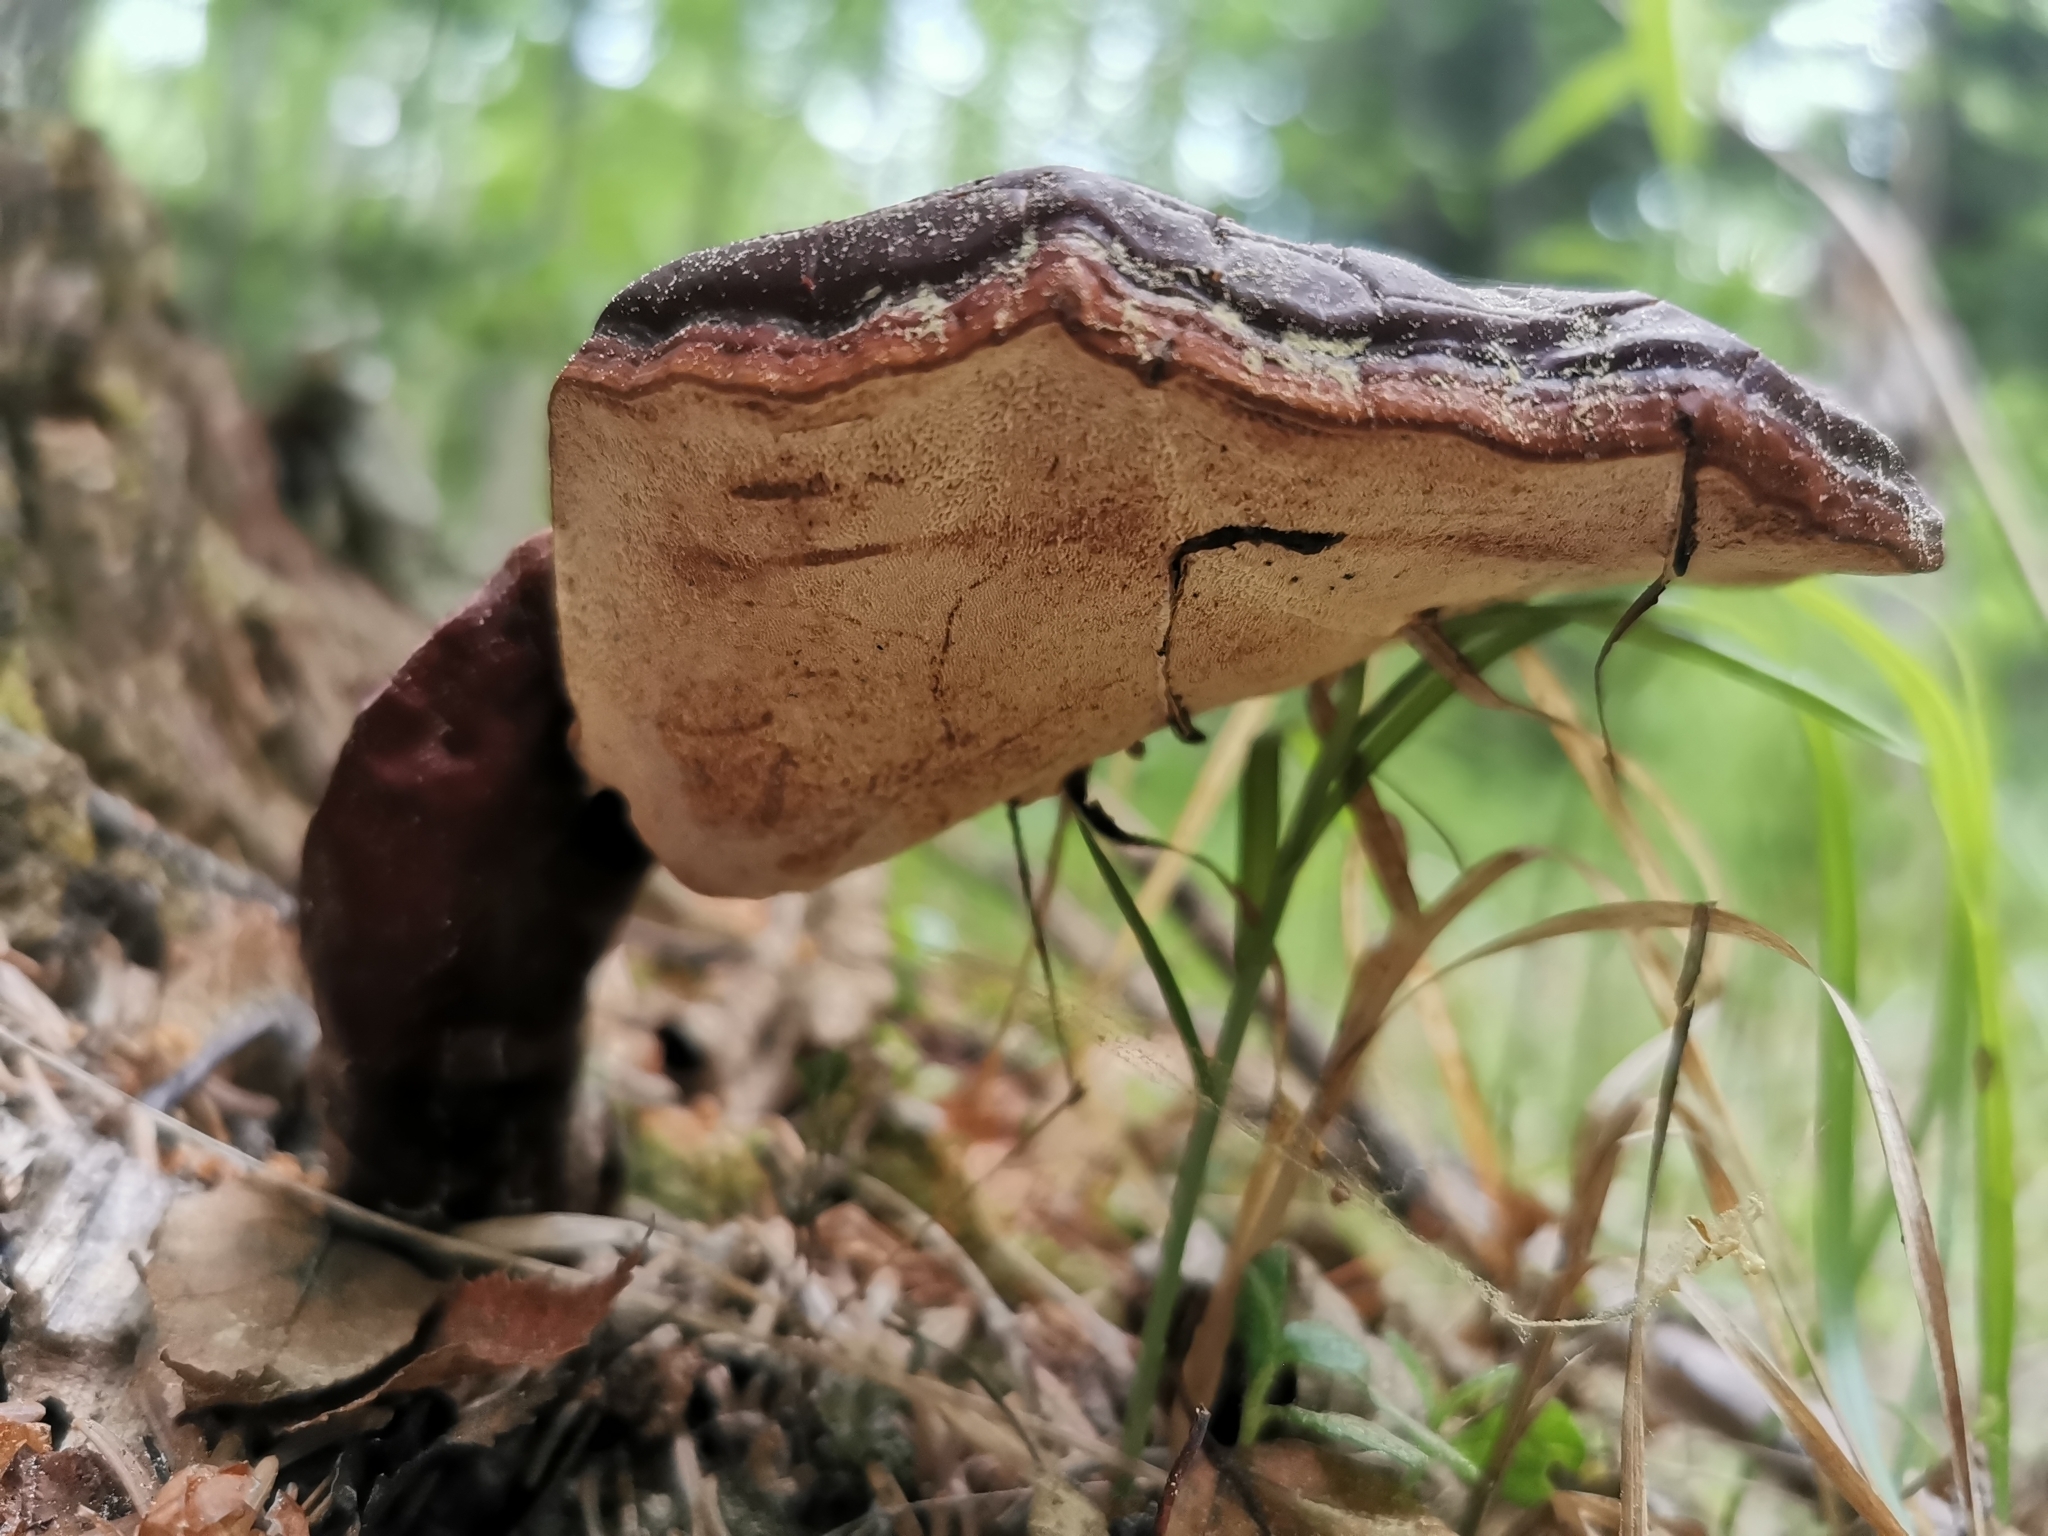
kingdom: Fungi
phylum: Basidiomycota
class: Agaricomycetes
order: Polyporales
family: Polyporaceae
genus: Ganoderma
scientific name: Ganoderma lucidum
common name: Lacquered bracket
